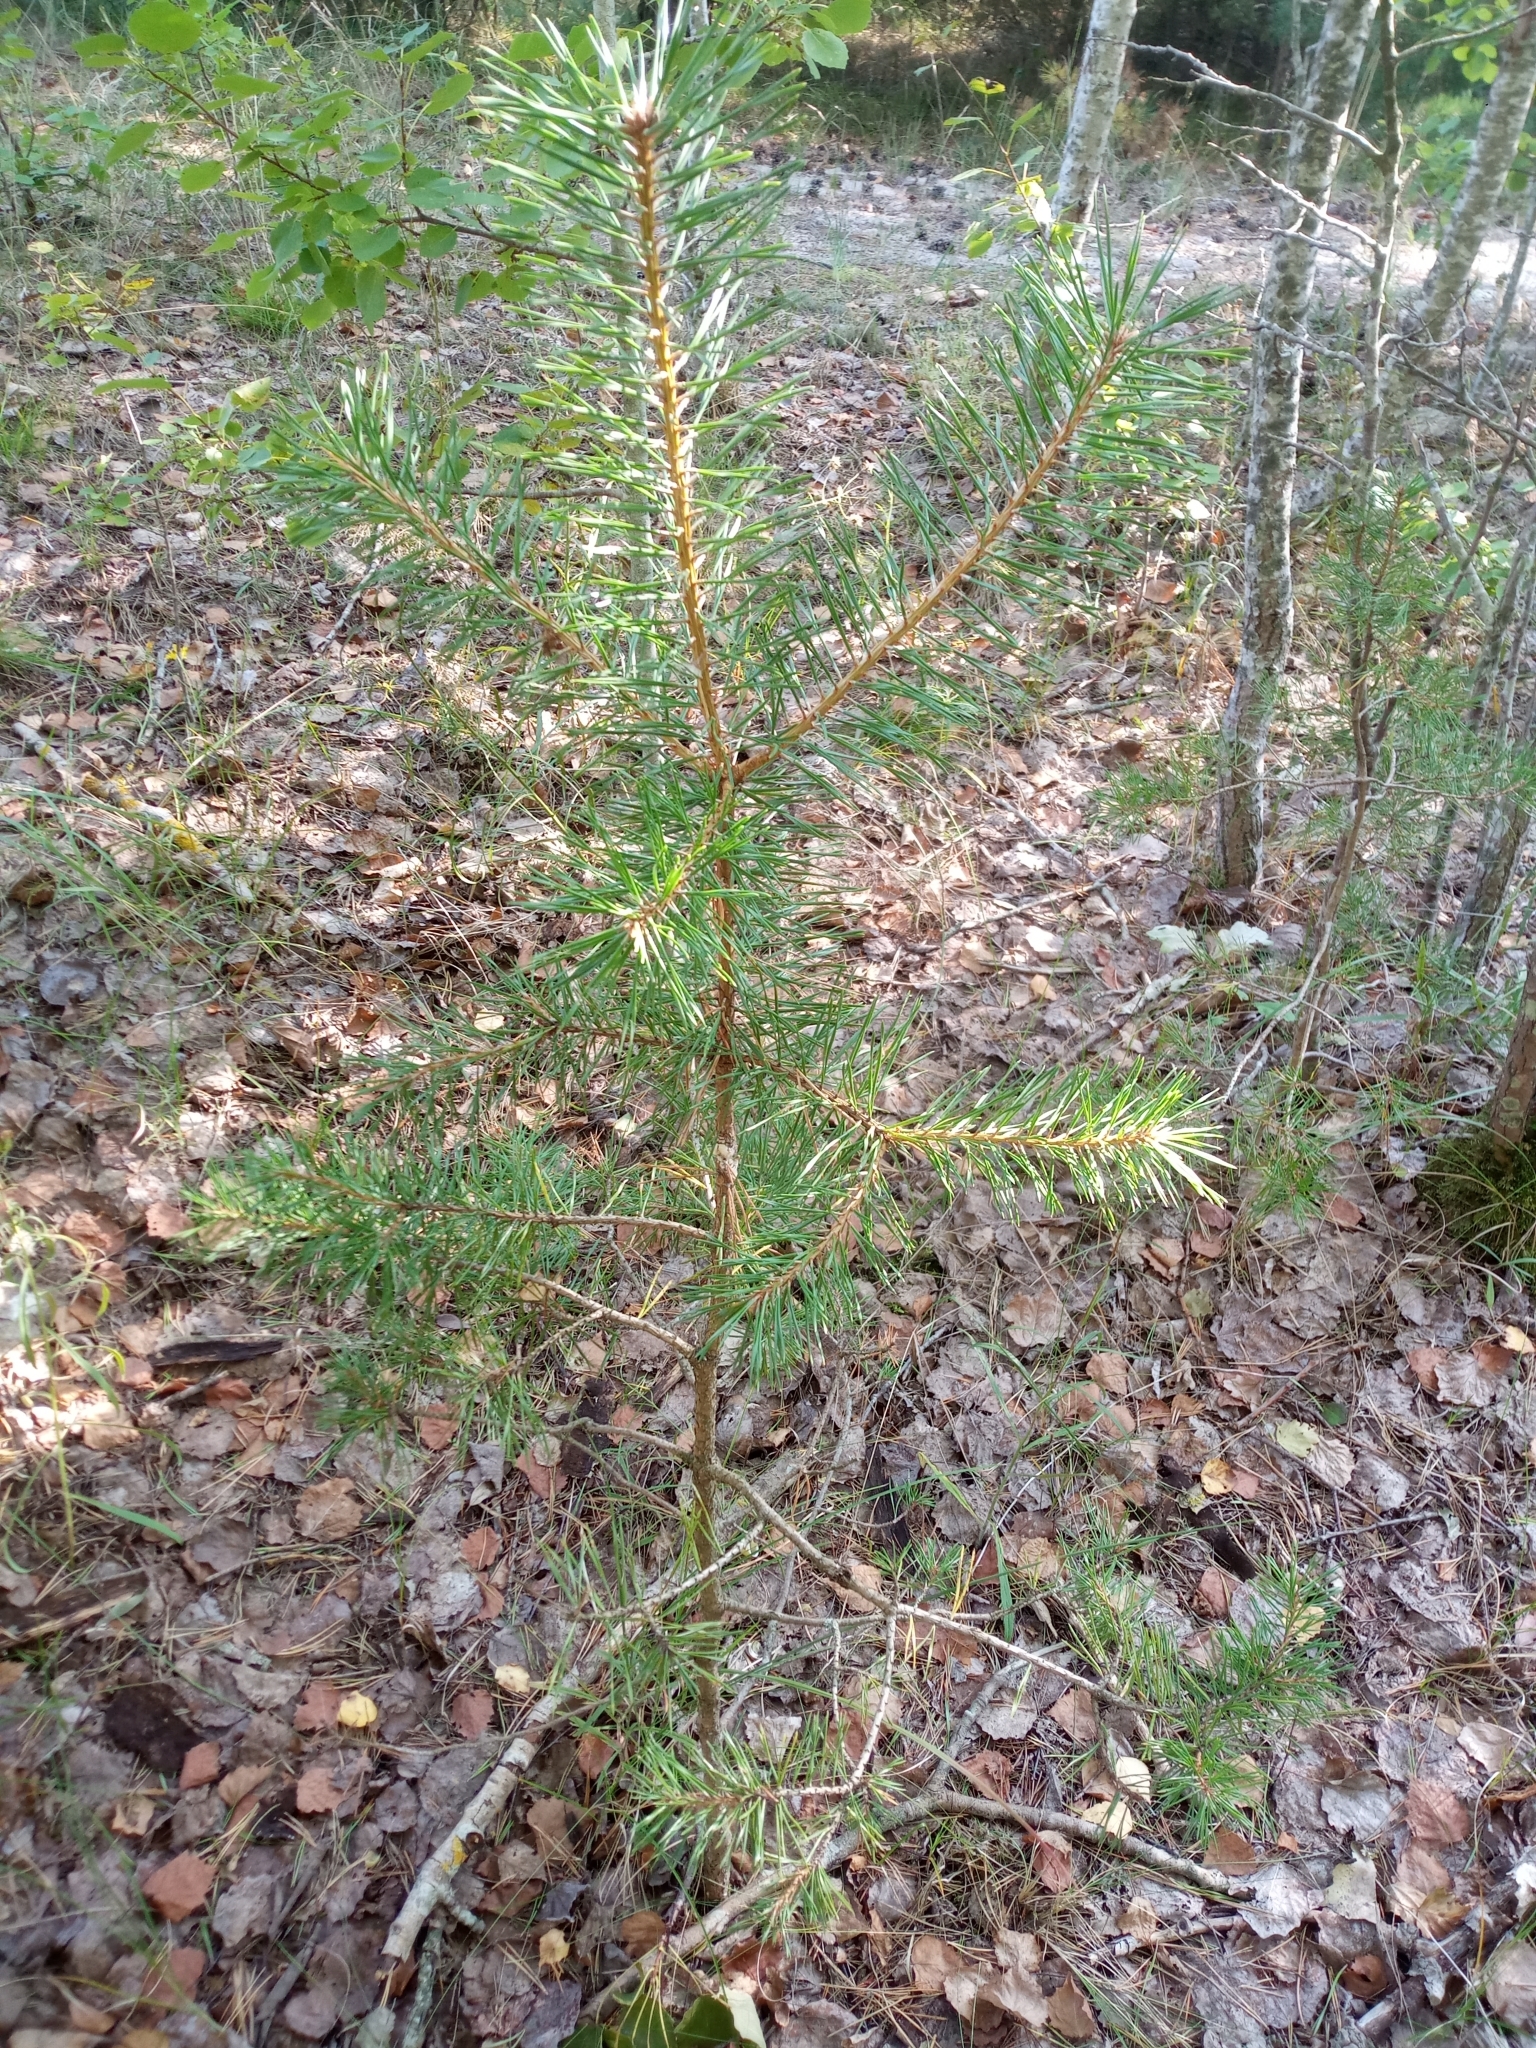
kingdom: Plantae
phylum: Tracheophyta
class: Pinopsida
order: Pinales
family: Pinaceae
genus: Pinus
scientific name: Pinus sylvestris
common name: Scots pine
